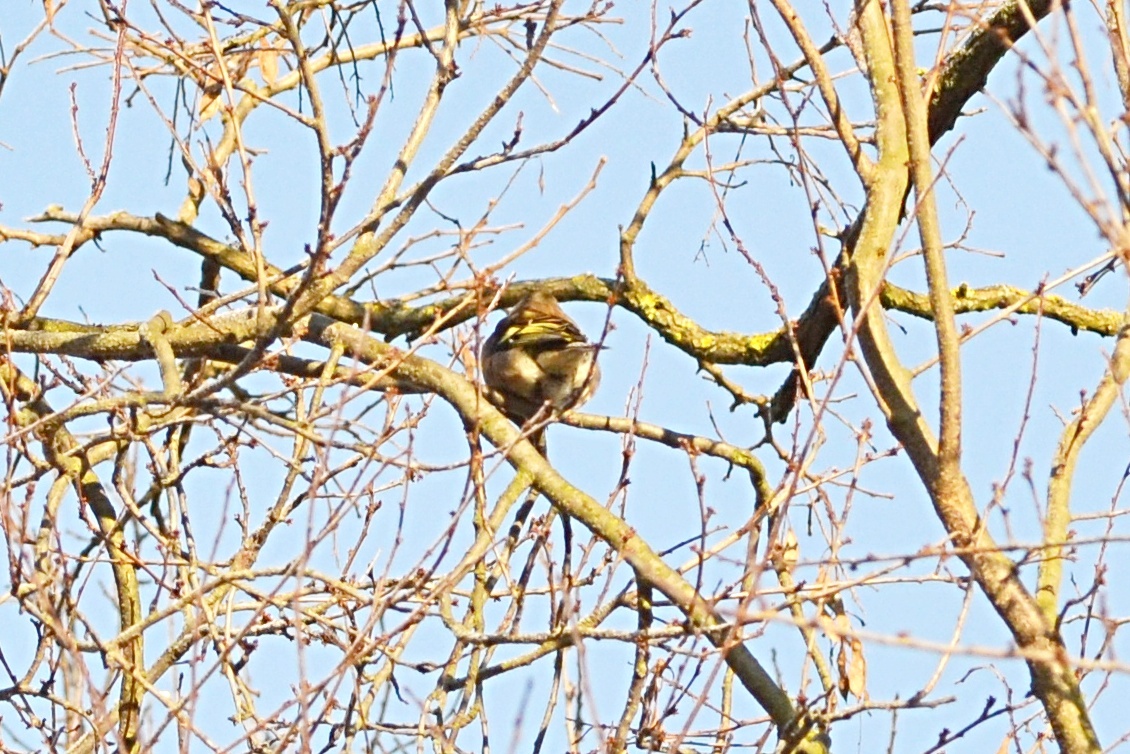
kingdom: Animalia
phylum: Chordata
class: Aves
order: Passeriformes
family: Fringillidae
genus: Fringilla
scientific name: Fringilla coelebs
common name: Common chaffinch
